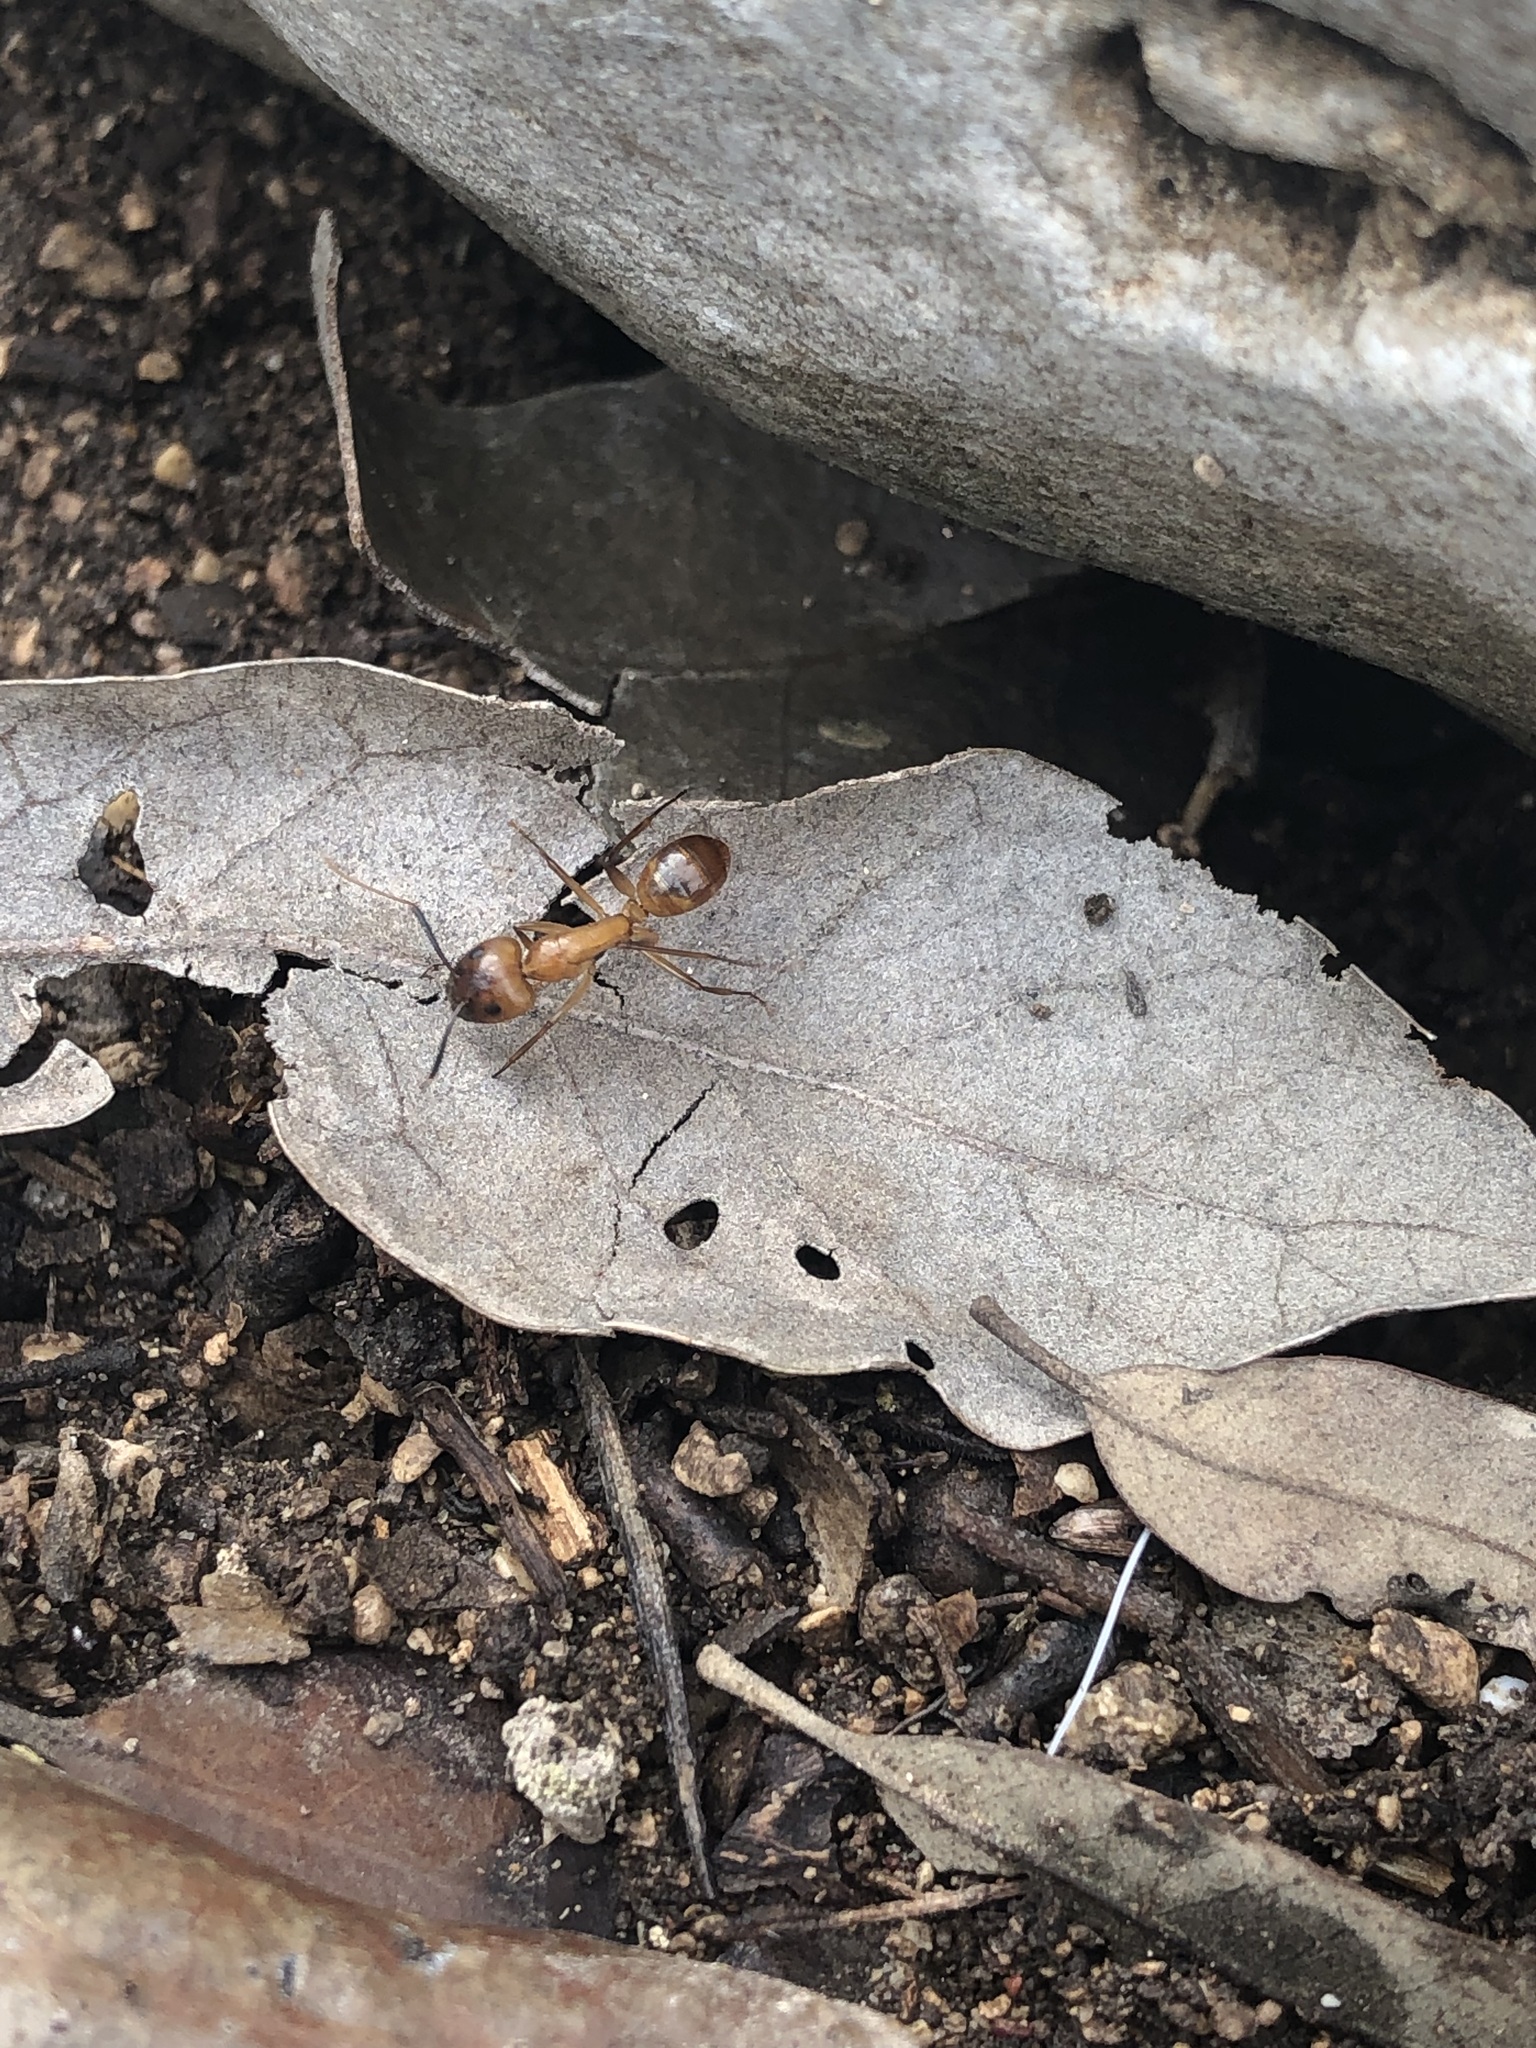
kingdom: Animalia
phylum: Arthropoda
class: Insecta
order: Hymenoptera
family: Formicidae
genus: Camponotus
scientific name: Camponotus festinatus
